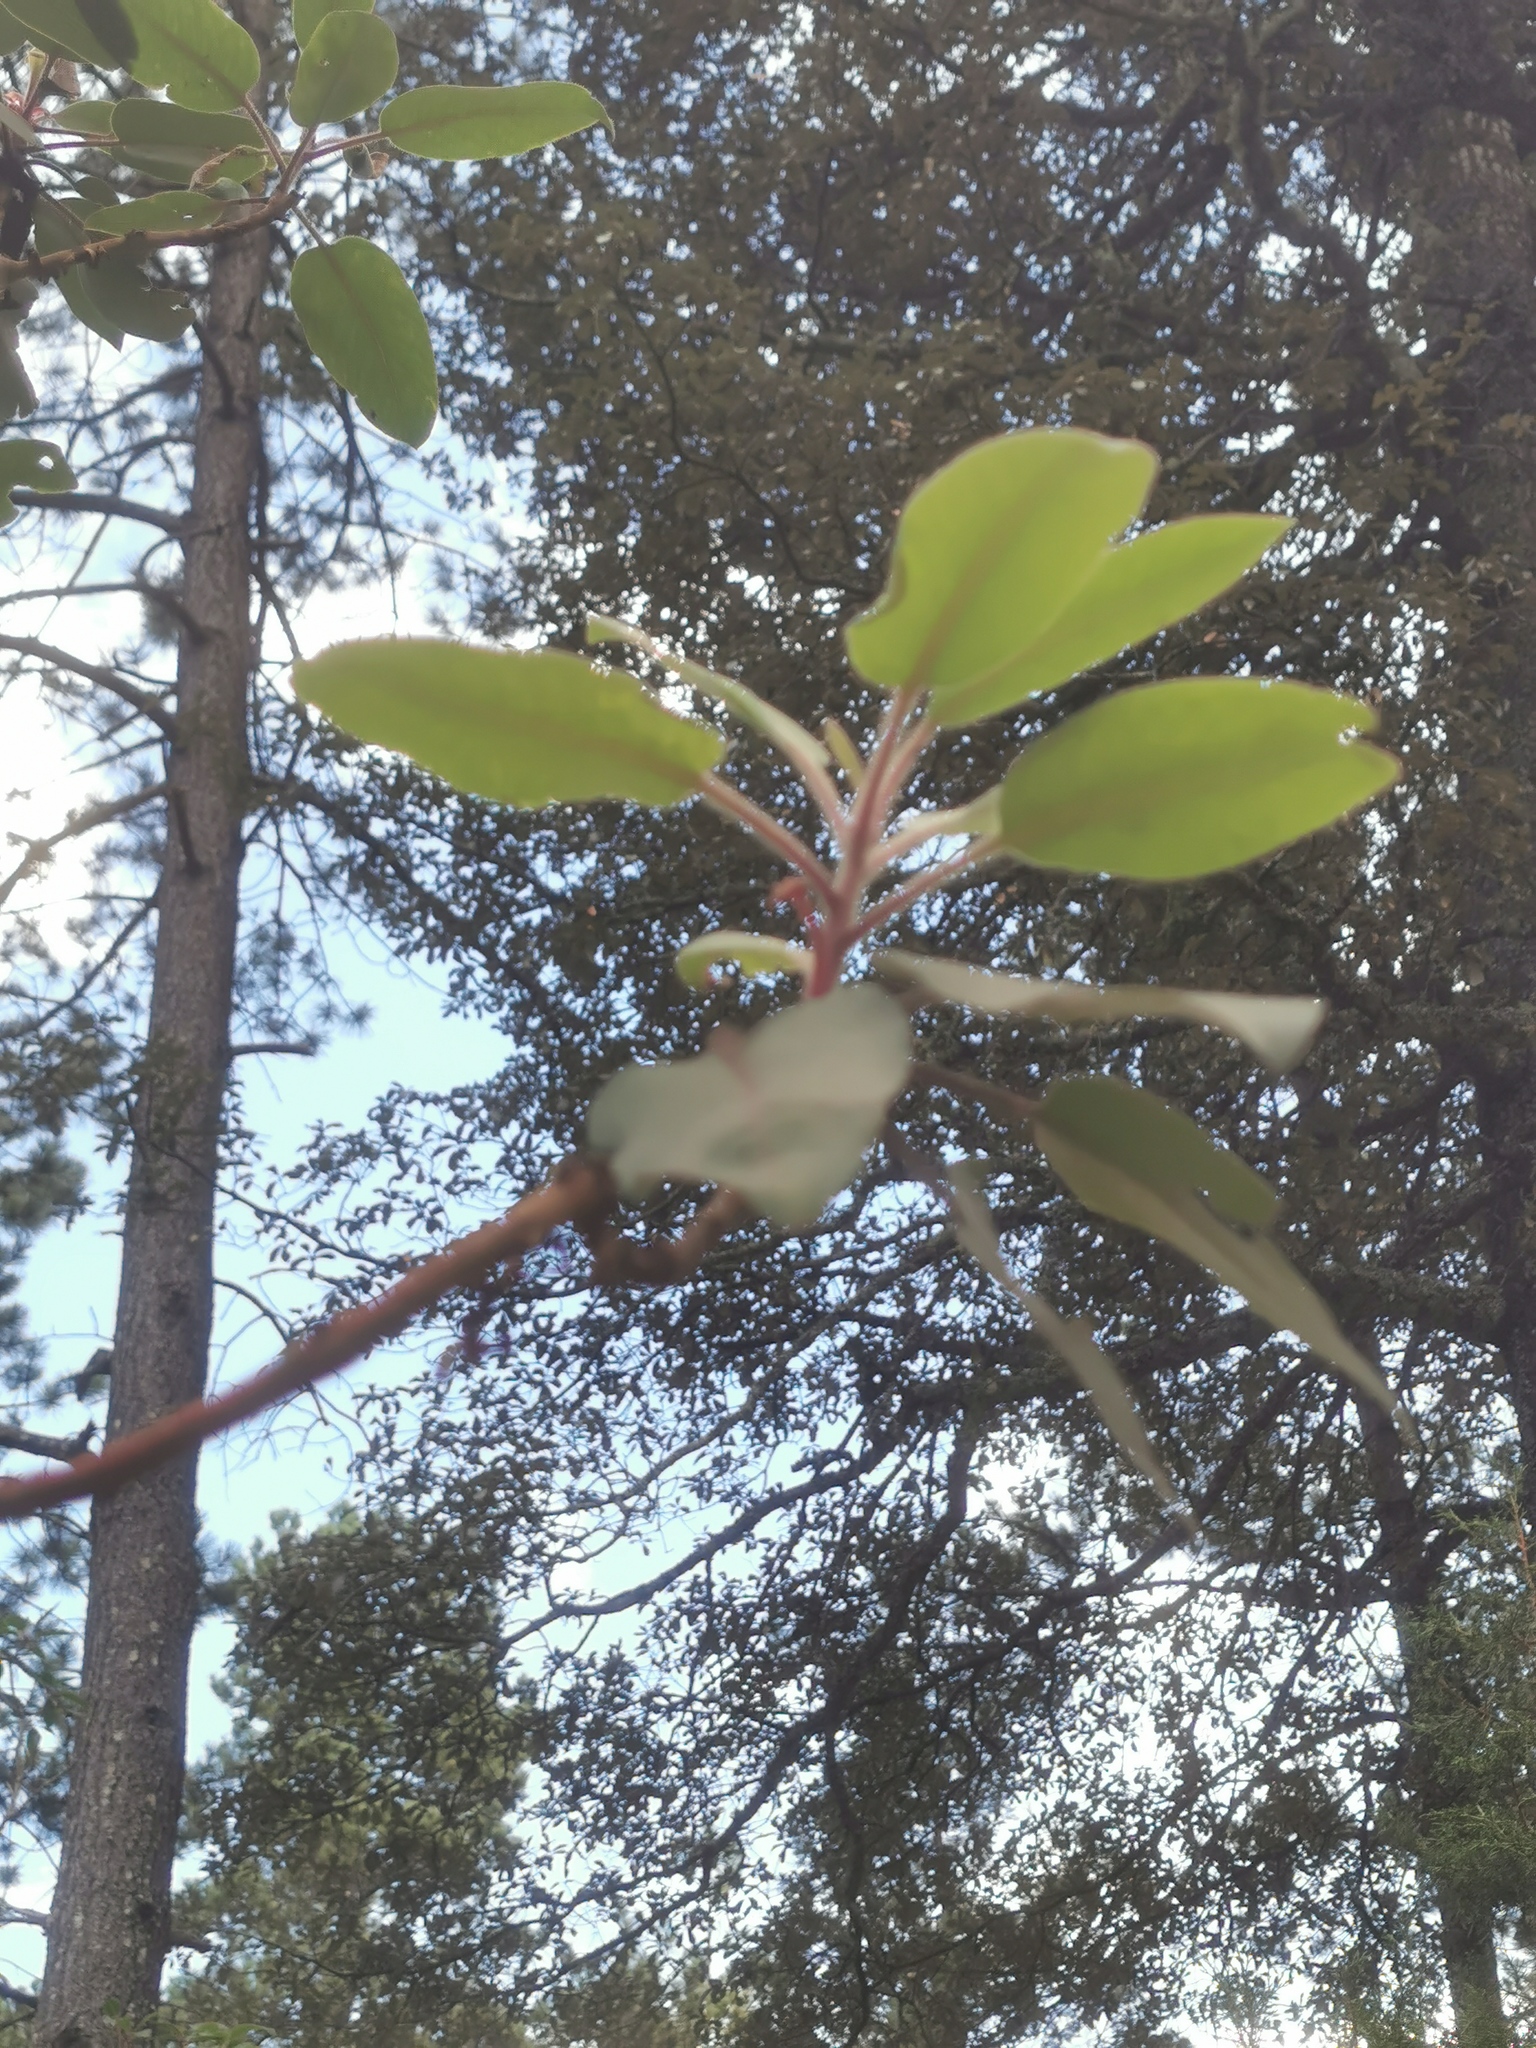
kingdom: Plantae
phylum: Tracheophyta
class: Magnoliopsida
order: Ericales
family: Ericaceae
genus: Arbutus
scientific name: Arbutus bicolor
